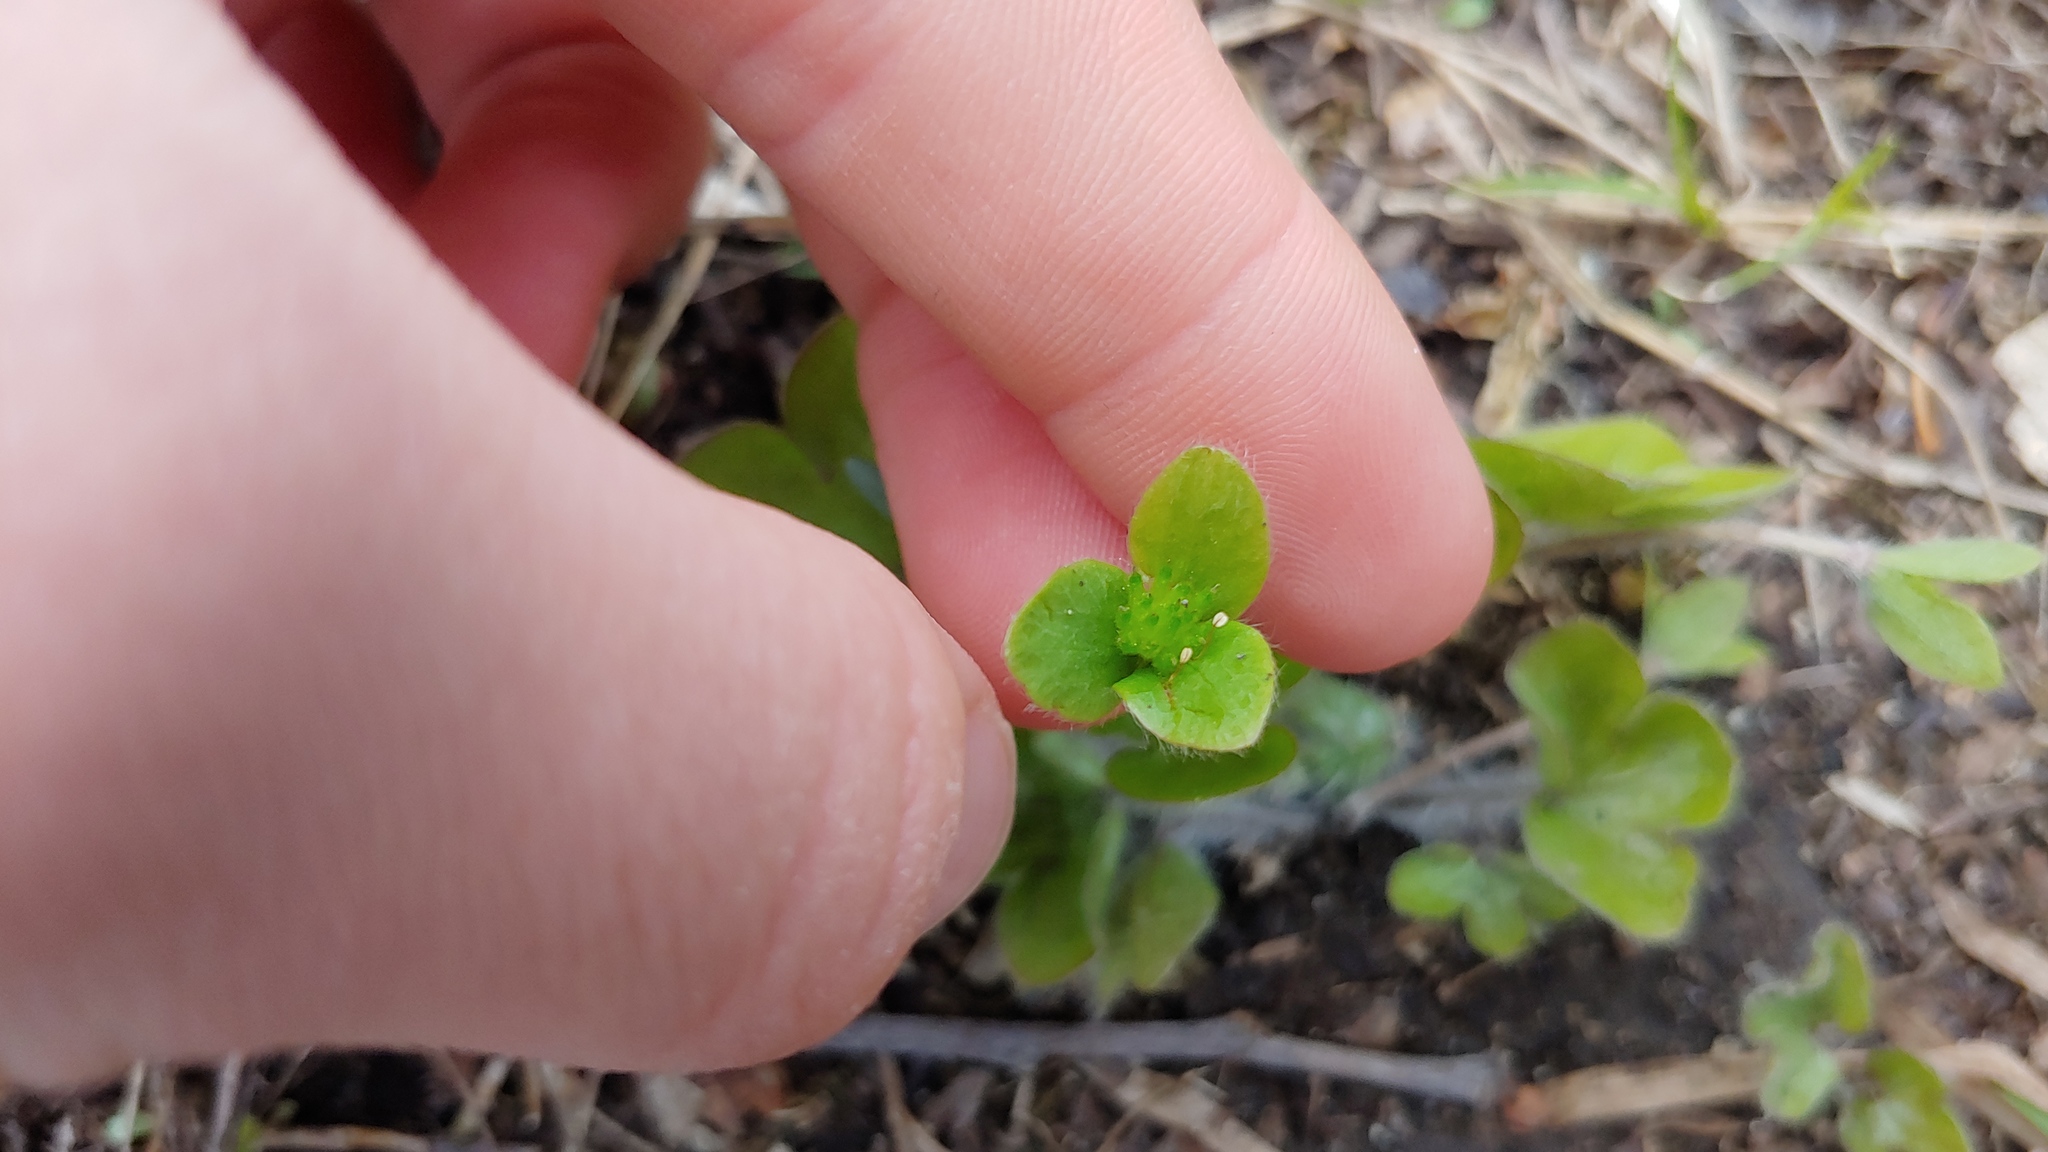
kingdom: Plantae
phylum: Tracheophyta
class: Magnoliopsida
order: Ranunculales
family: Ranunculaceae
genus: Hepatica
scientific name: Hepatica americana
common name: American hepatica
